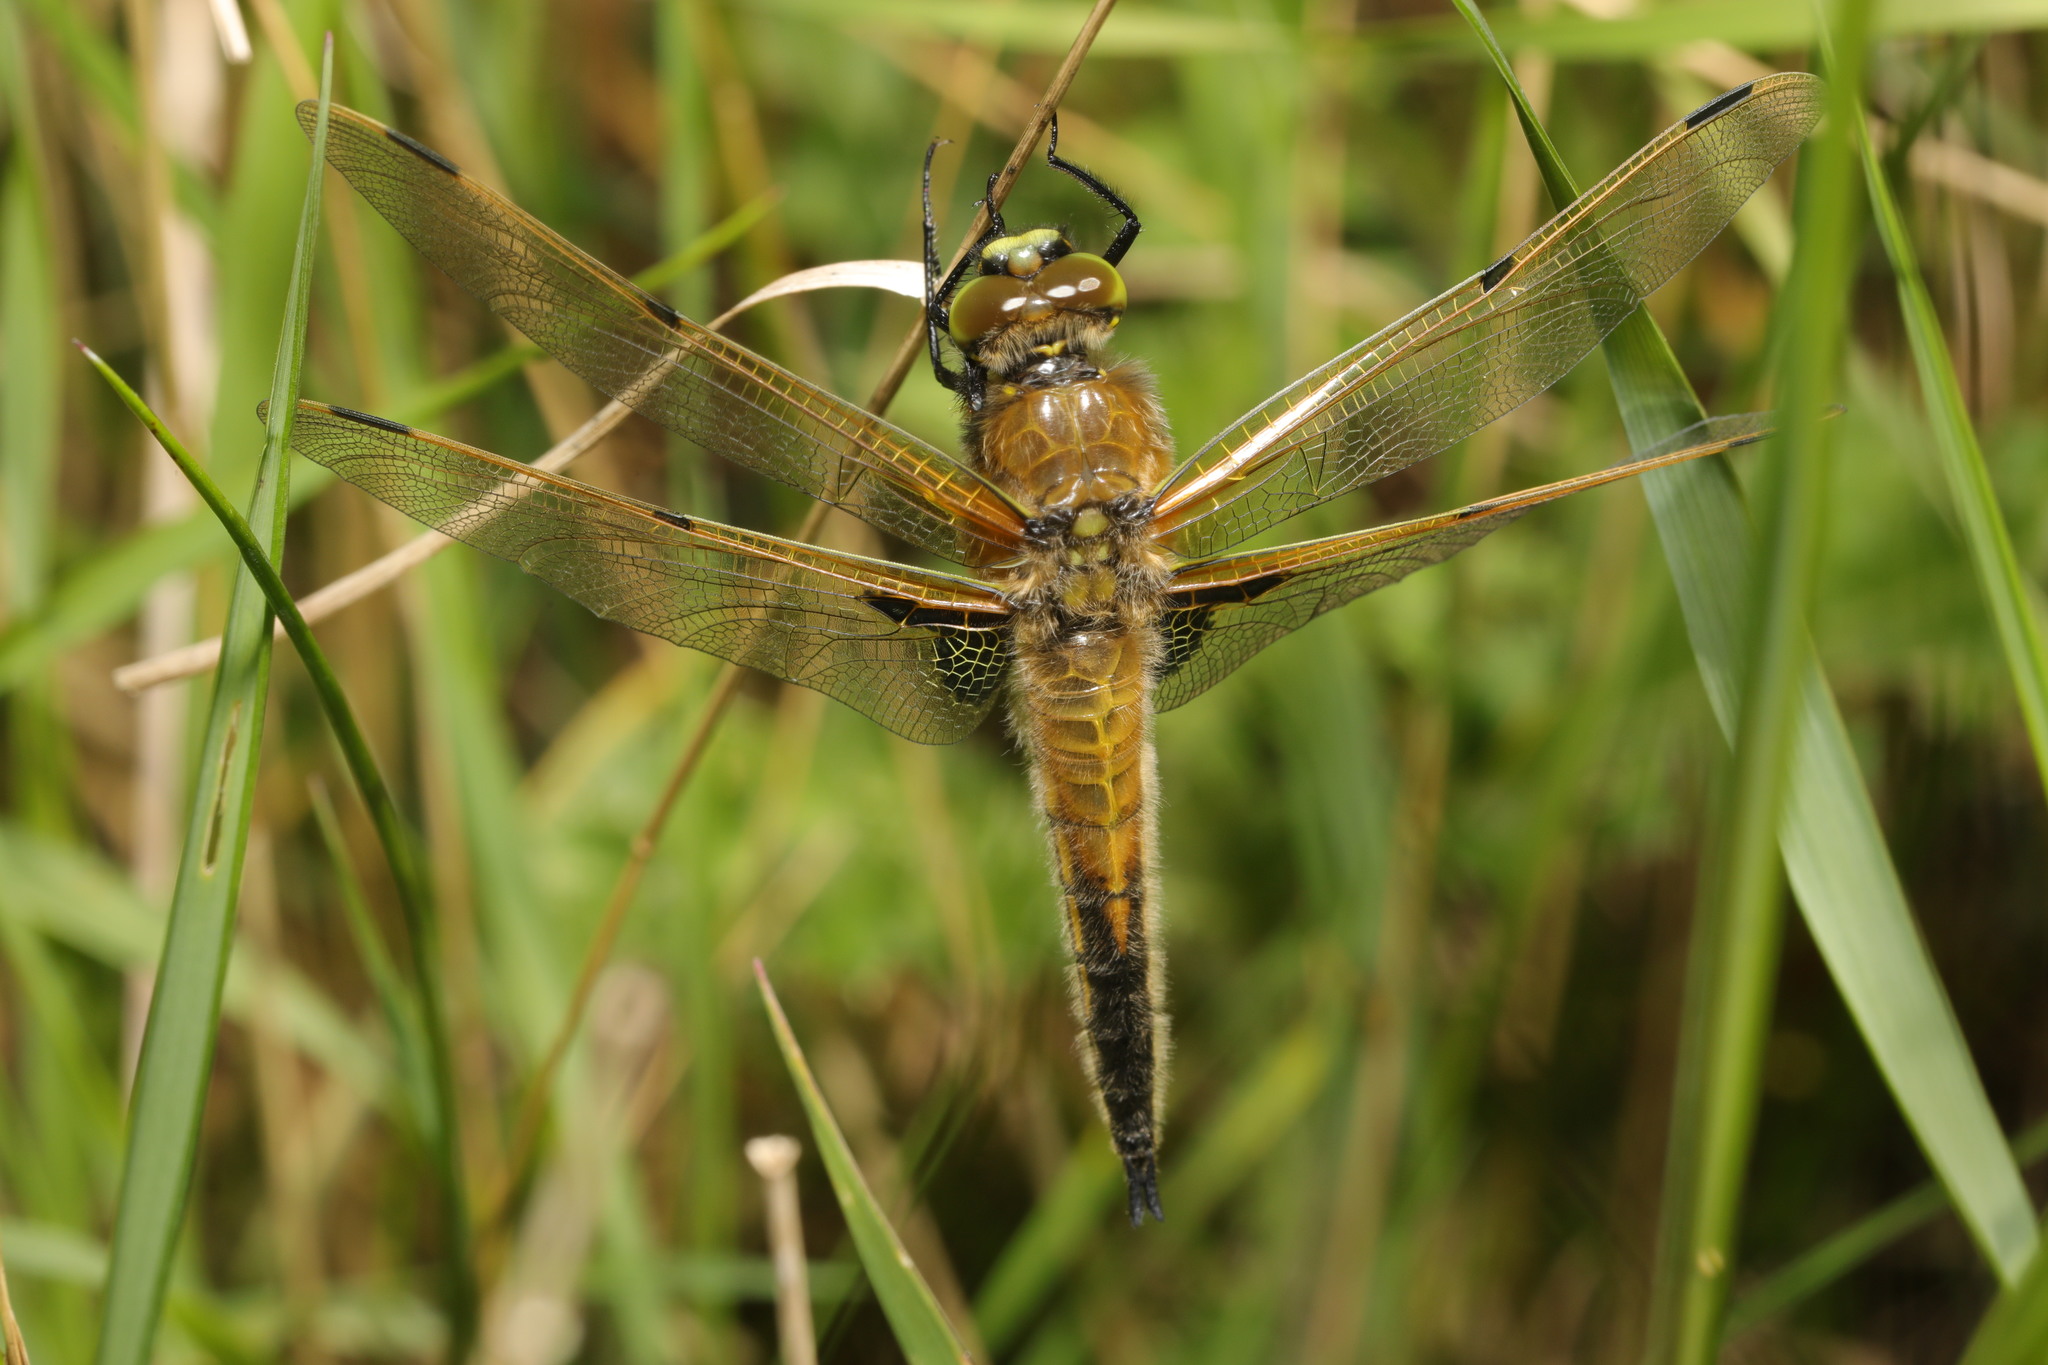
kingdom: Animalia
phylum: Arthropoda
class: Insecta
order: Odonata
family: Libellulidae
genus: Libellula
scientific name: Libellula quadrimaculata
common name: Four-spotted chaser
